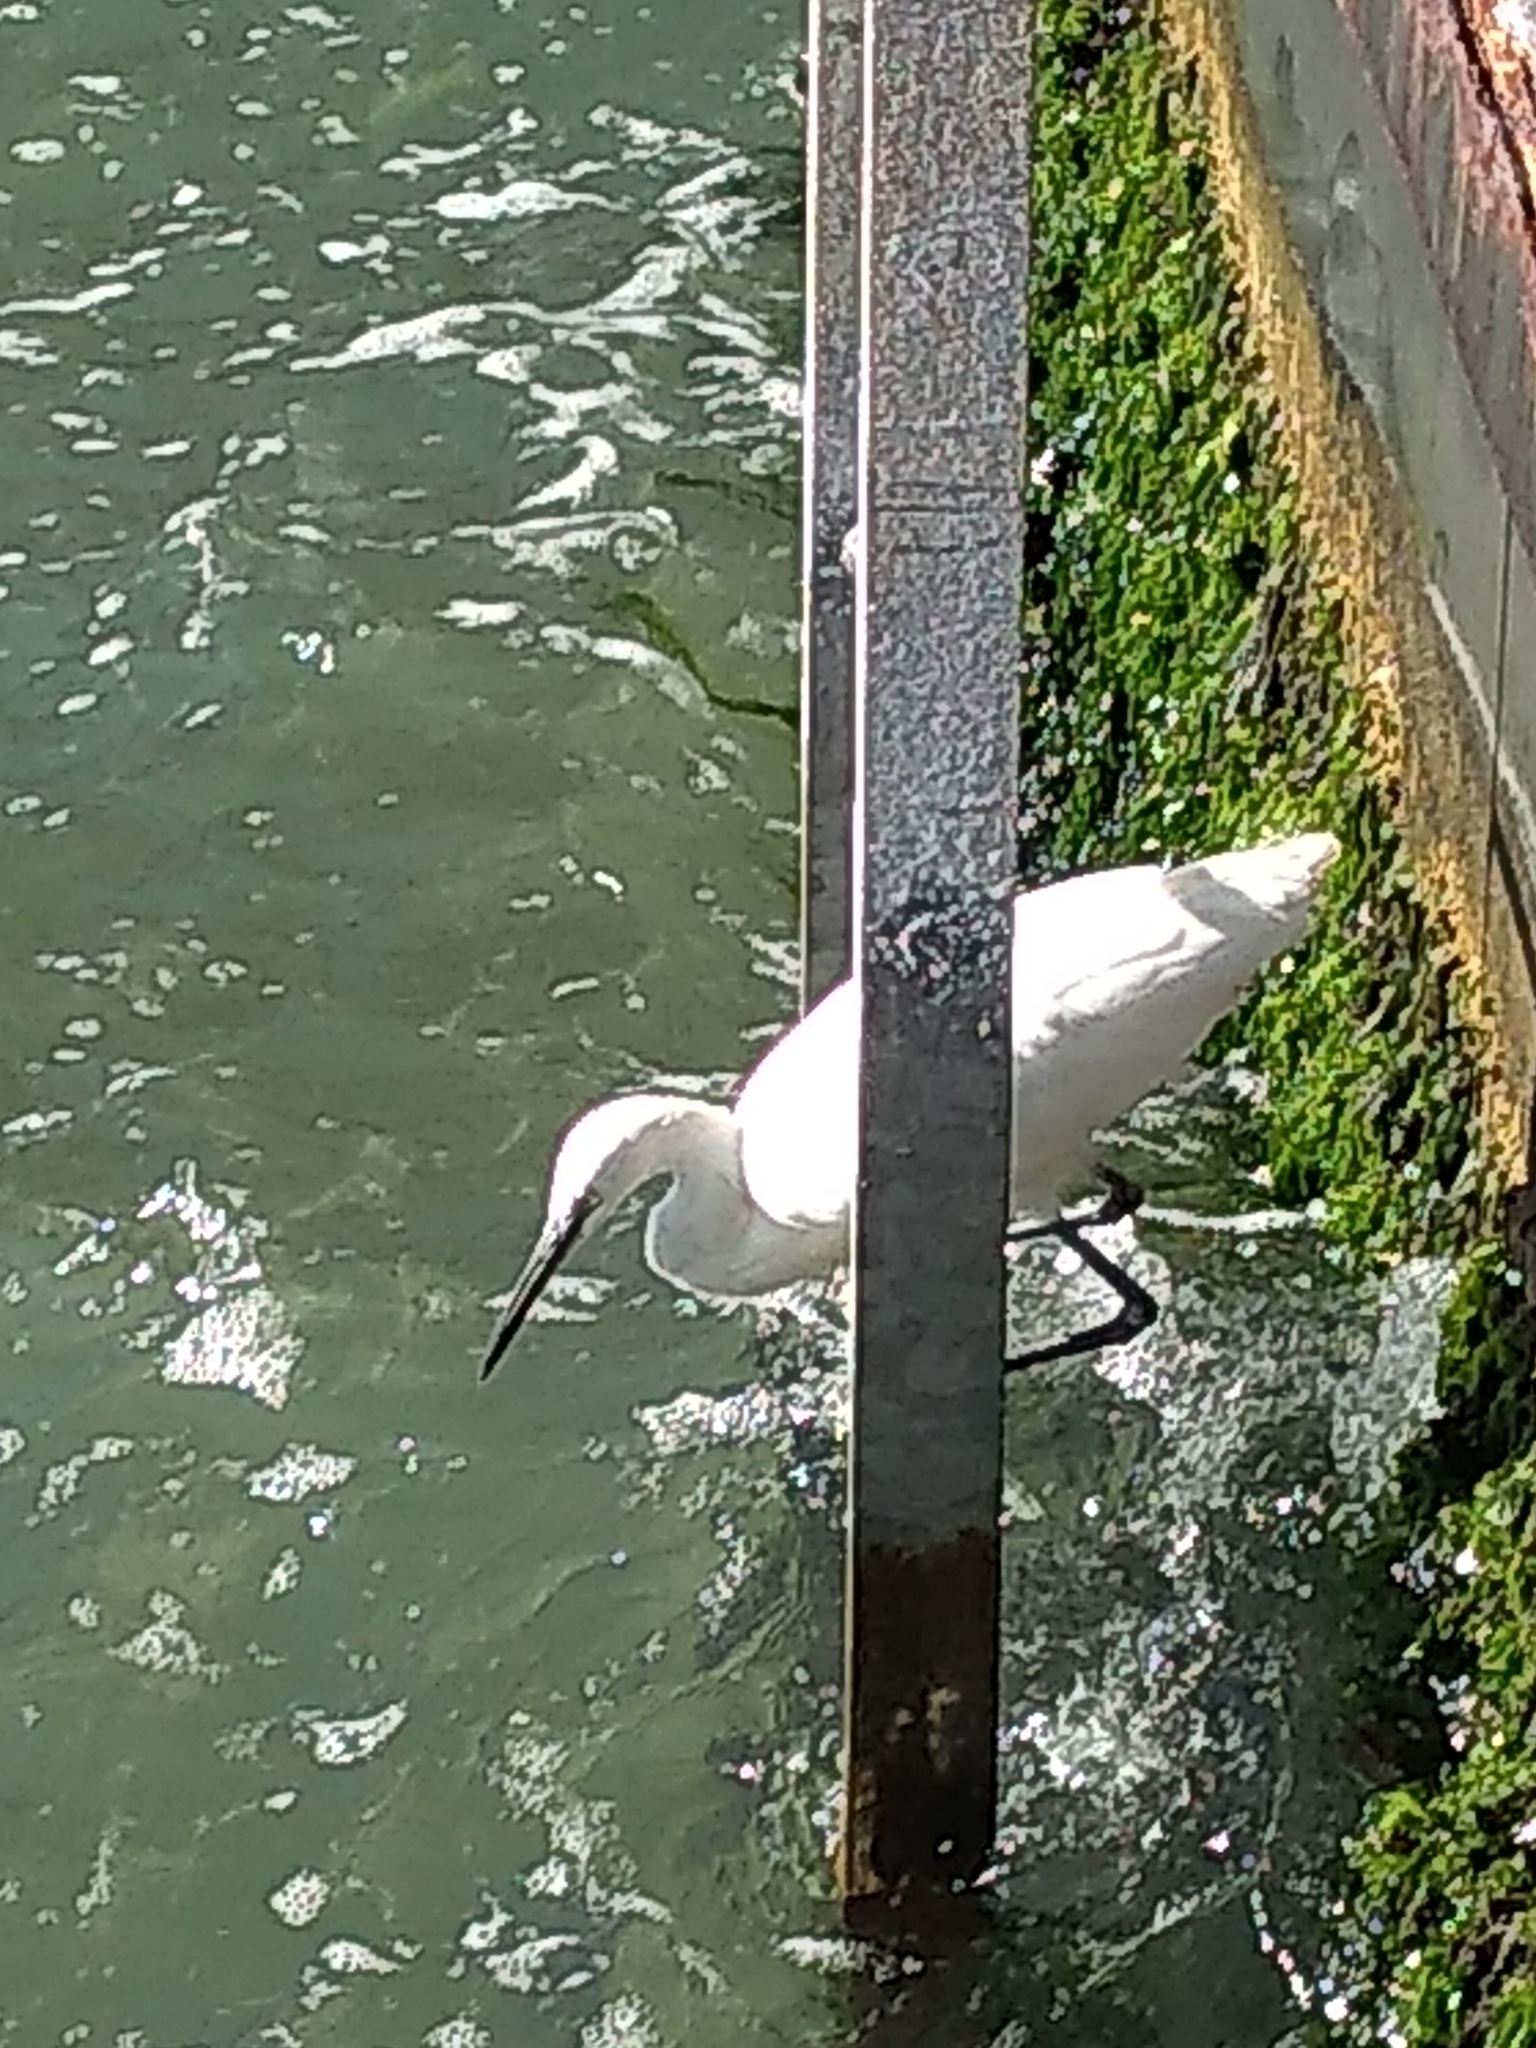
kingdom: Animalia
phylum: Chordata
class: Aves
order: Pelecaniformes
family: Ardeidae
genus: Egretta
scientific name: Egretta garzetta
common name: Little egret
